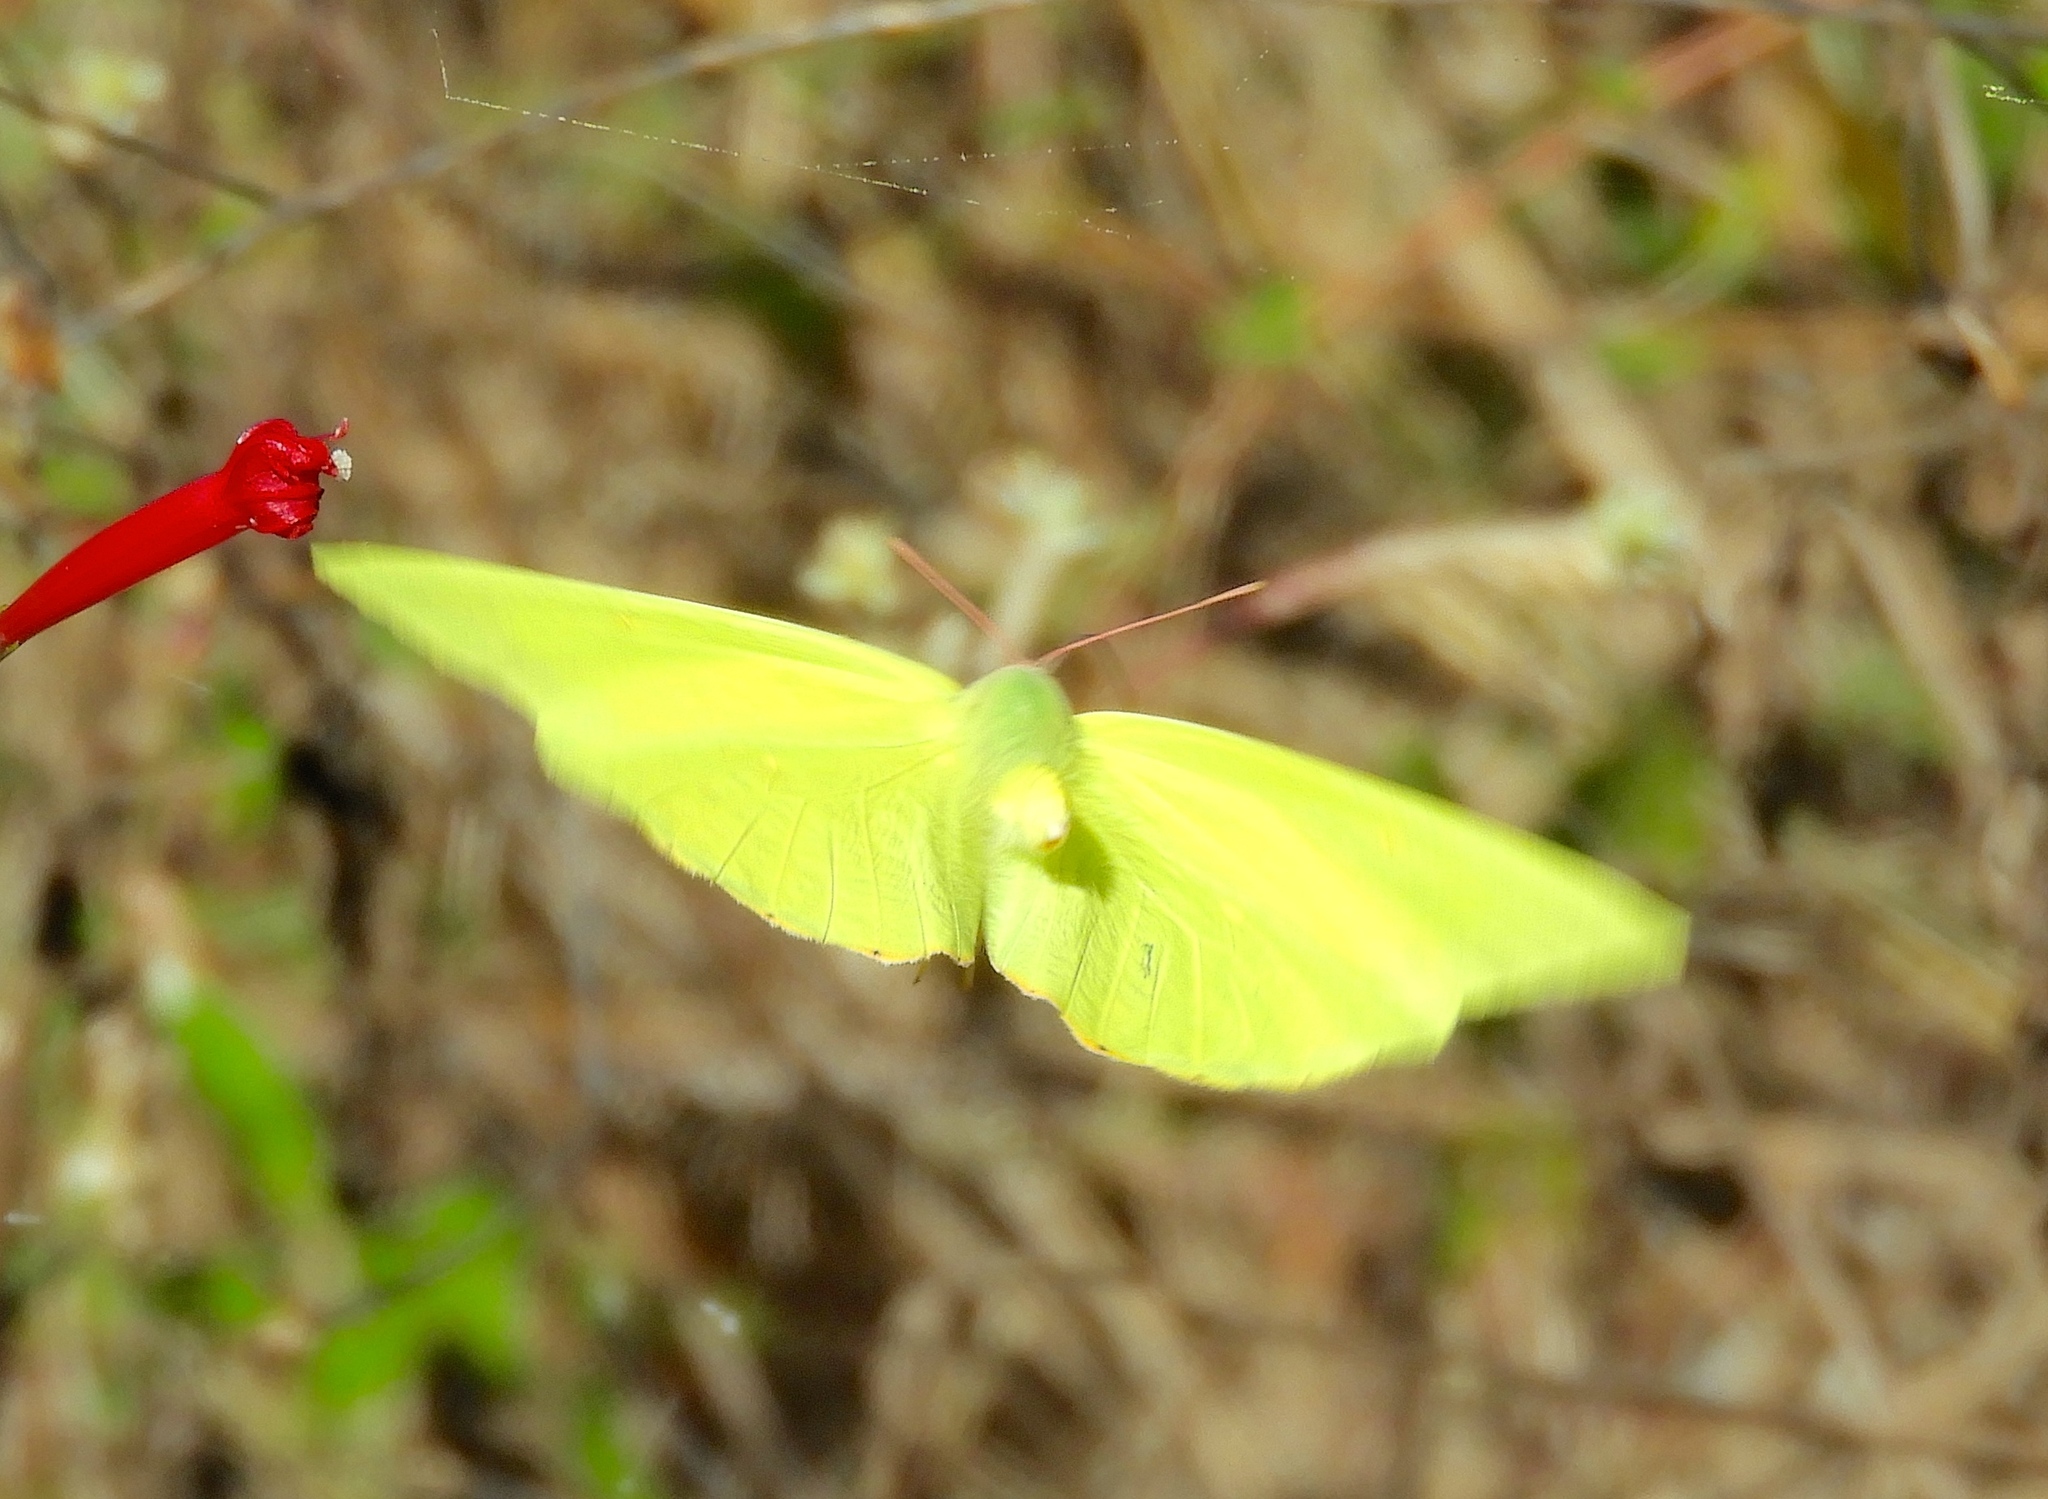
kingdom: Animalia
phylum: Arthropoda
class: Insecta
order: Lepidoptera
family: Pieridae
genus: Phoebis
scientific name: Phoebis marcellina
